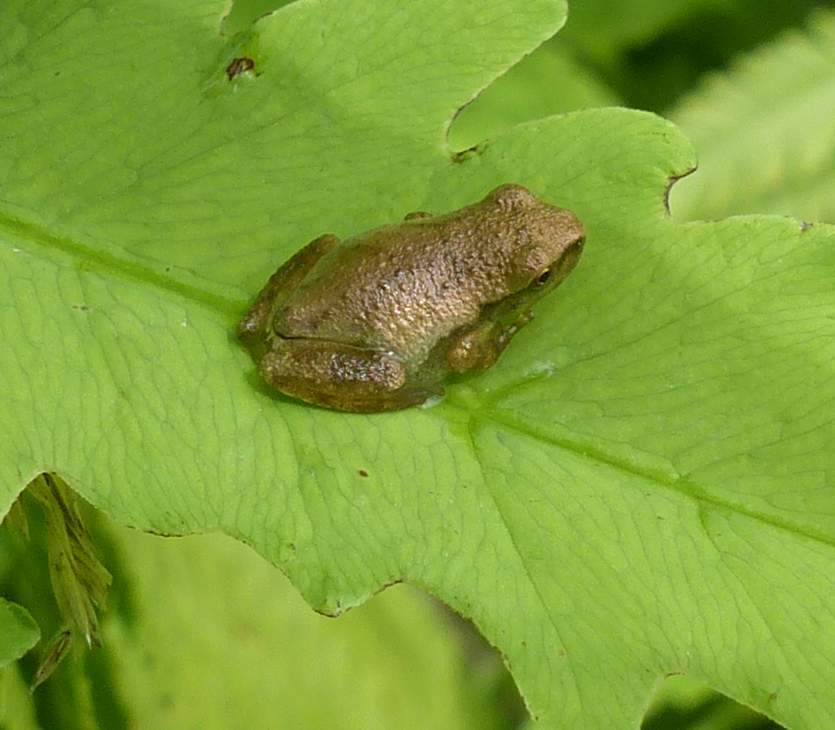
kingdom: Animalia
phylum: Chordata
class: Amphibia
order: Anura
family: Hylidae
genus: Pseudacris
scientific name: Pseudacris crucifer
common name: Spring peeper
